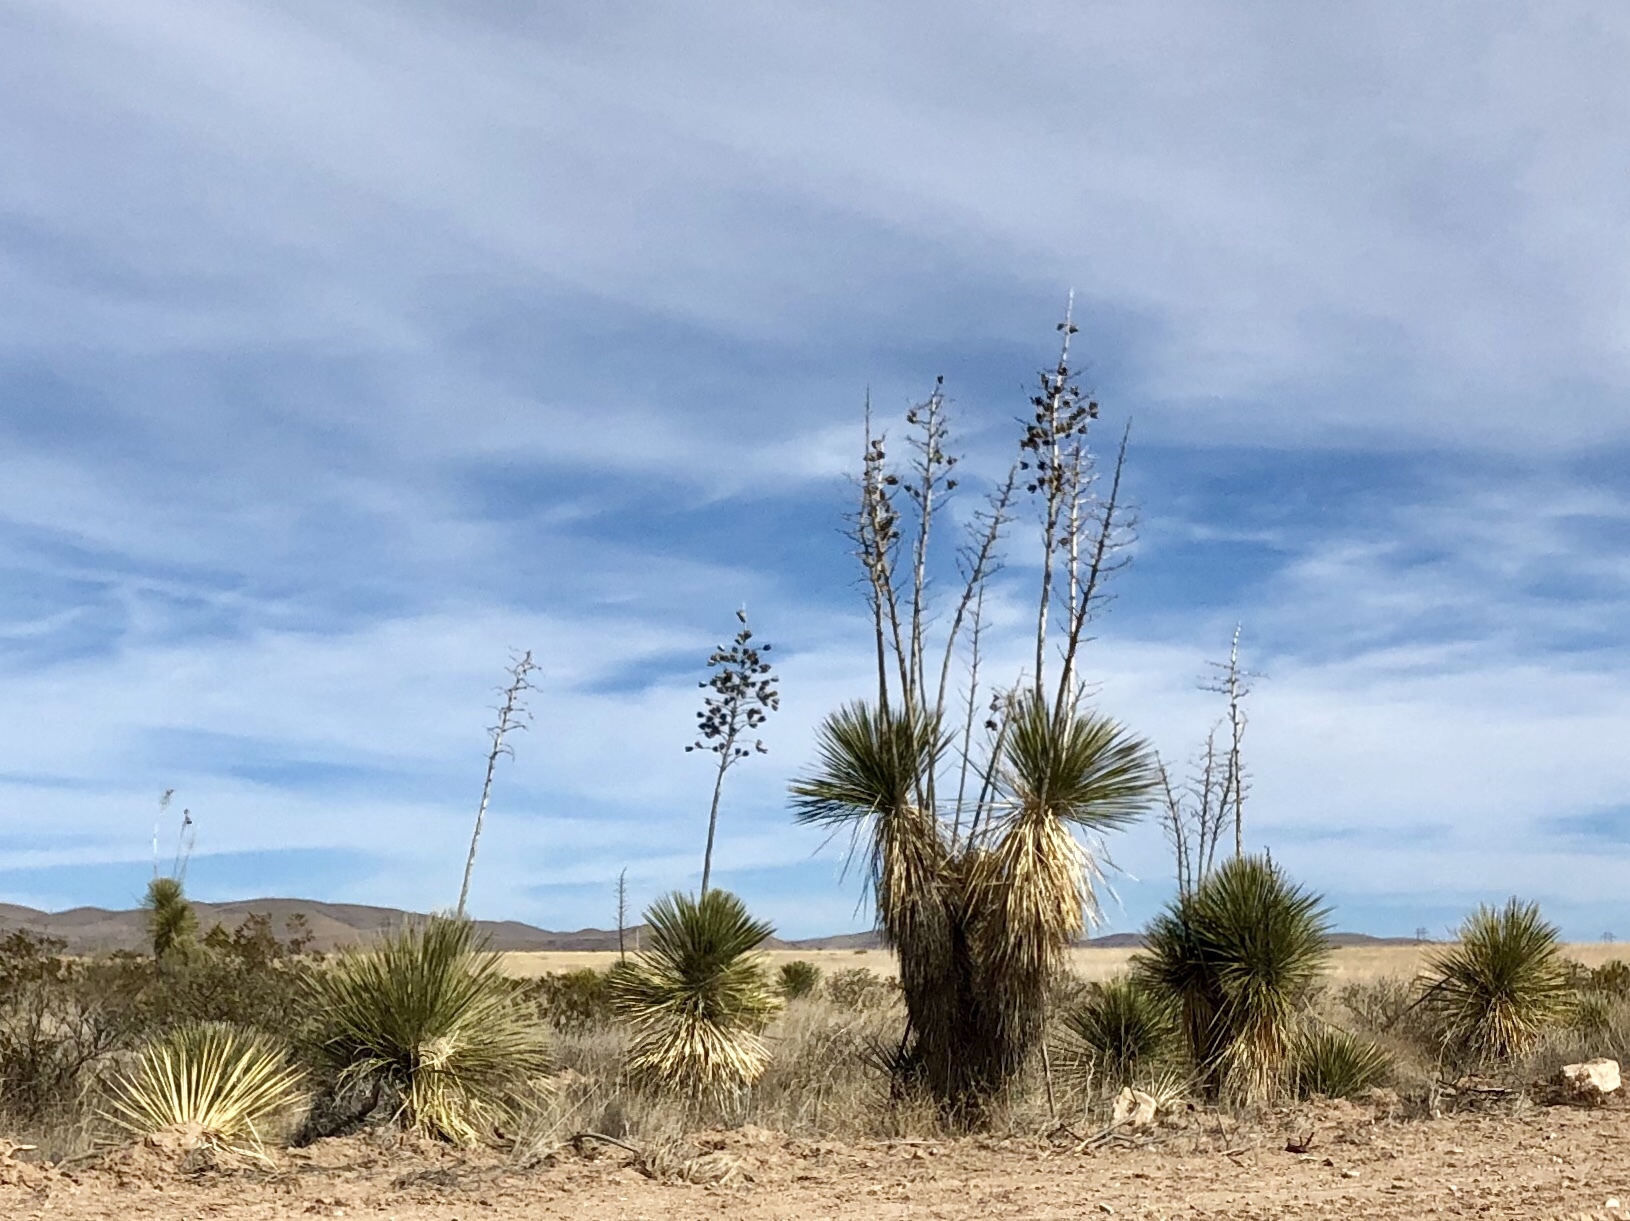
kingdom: Plantae
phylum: Tracheophyta
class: Liliopsida
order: Asparagales
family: Asparagaceae
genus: Yucca
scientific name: Yucca elata
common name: Palmella
